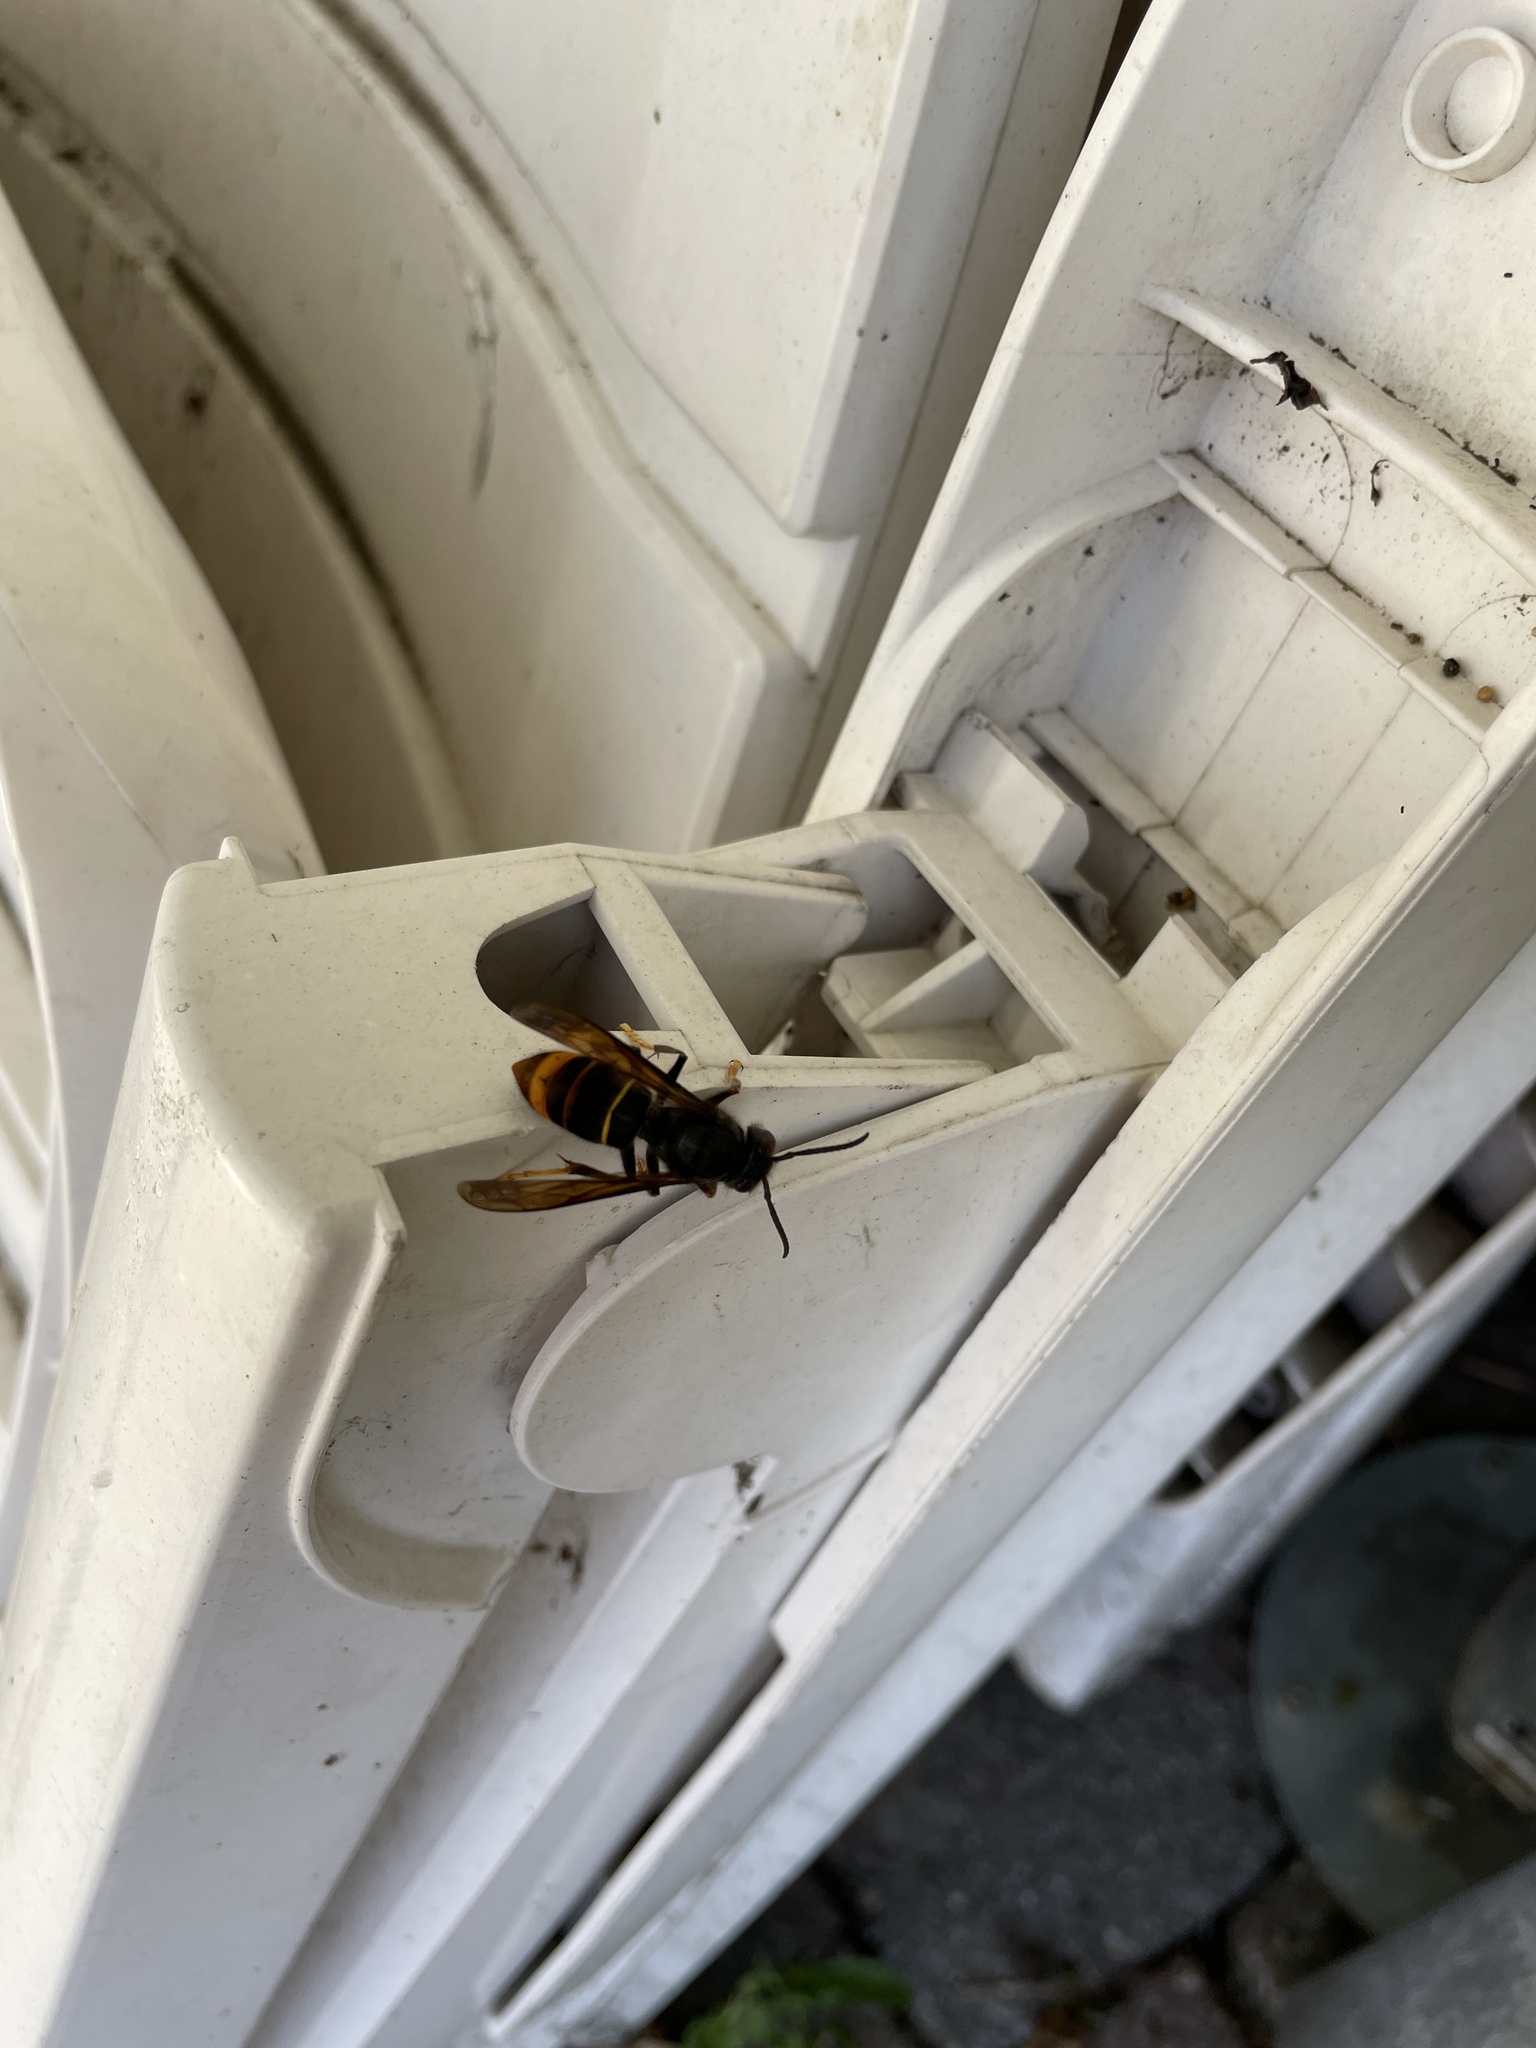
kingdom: Animalia
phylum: Arthropoda
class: Insecta
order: Hymenoptera
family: Vespidae
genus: Vespa
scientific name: Vespa velutina
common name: Asian hornet
